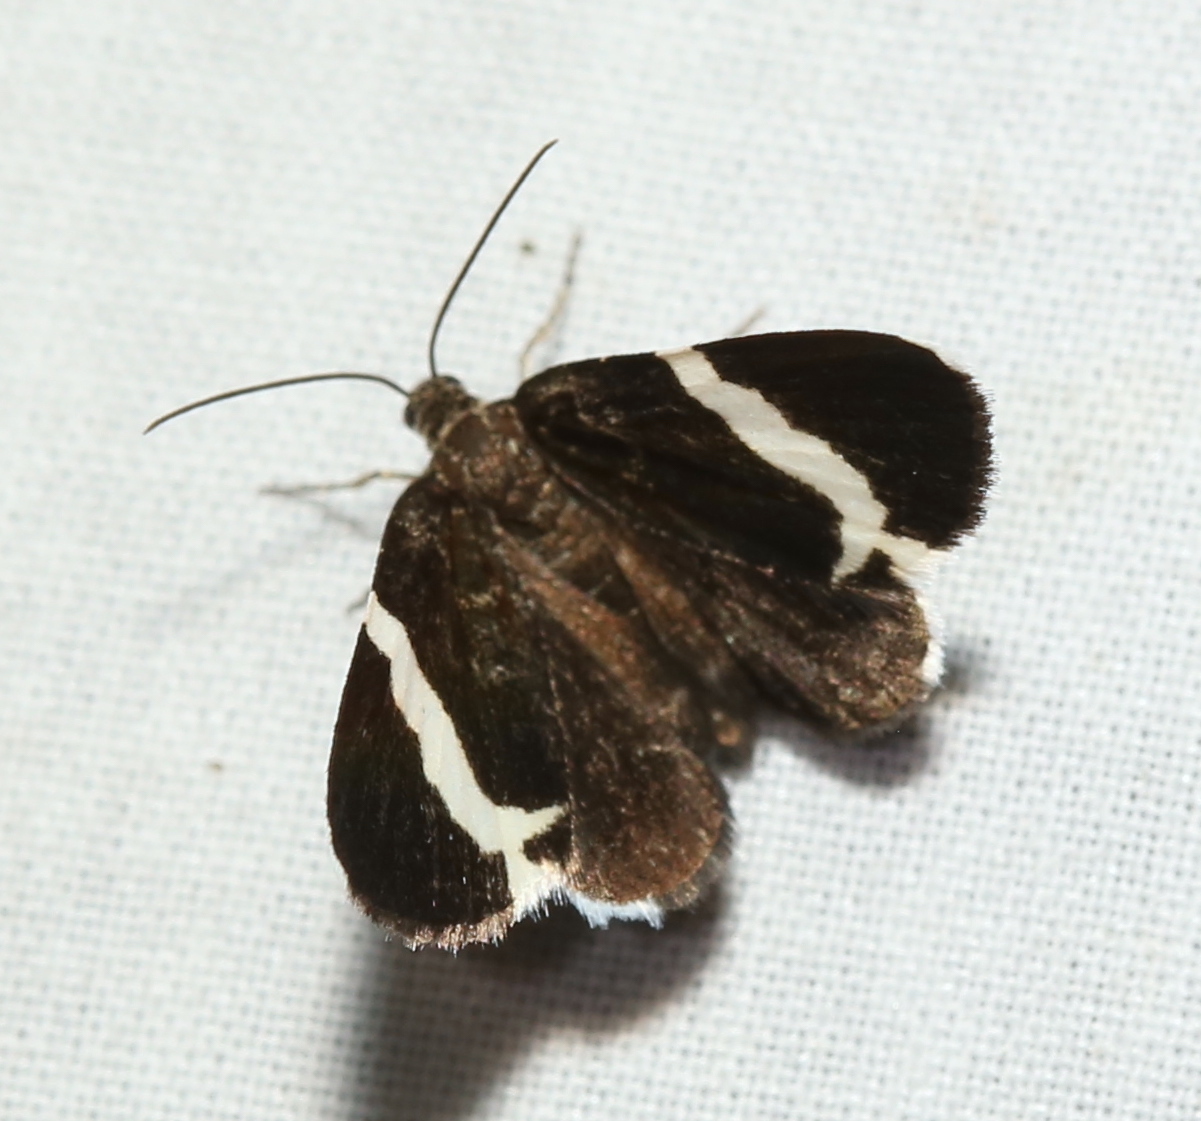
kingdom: Animalia
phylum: Arthropoda
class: Insecta
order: Lepidoptera
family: Geometridae
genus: Trichodezia
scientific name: Trichodezia albovittata
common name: White striped black
